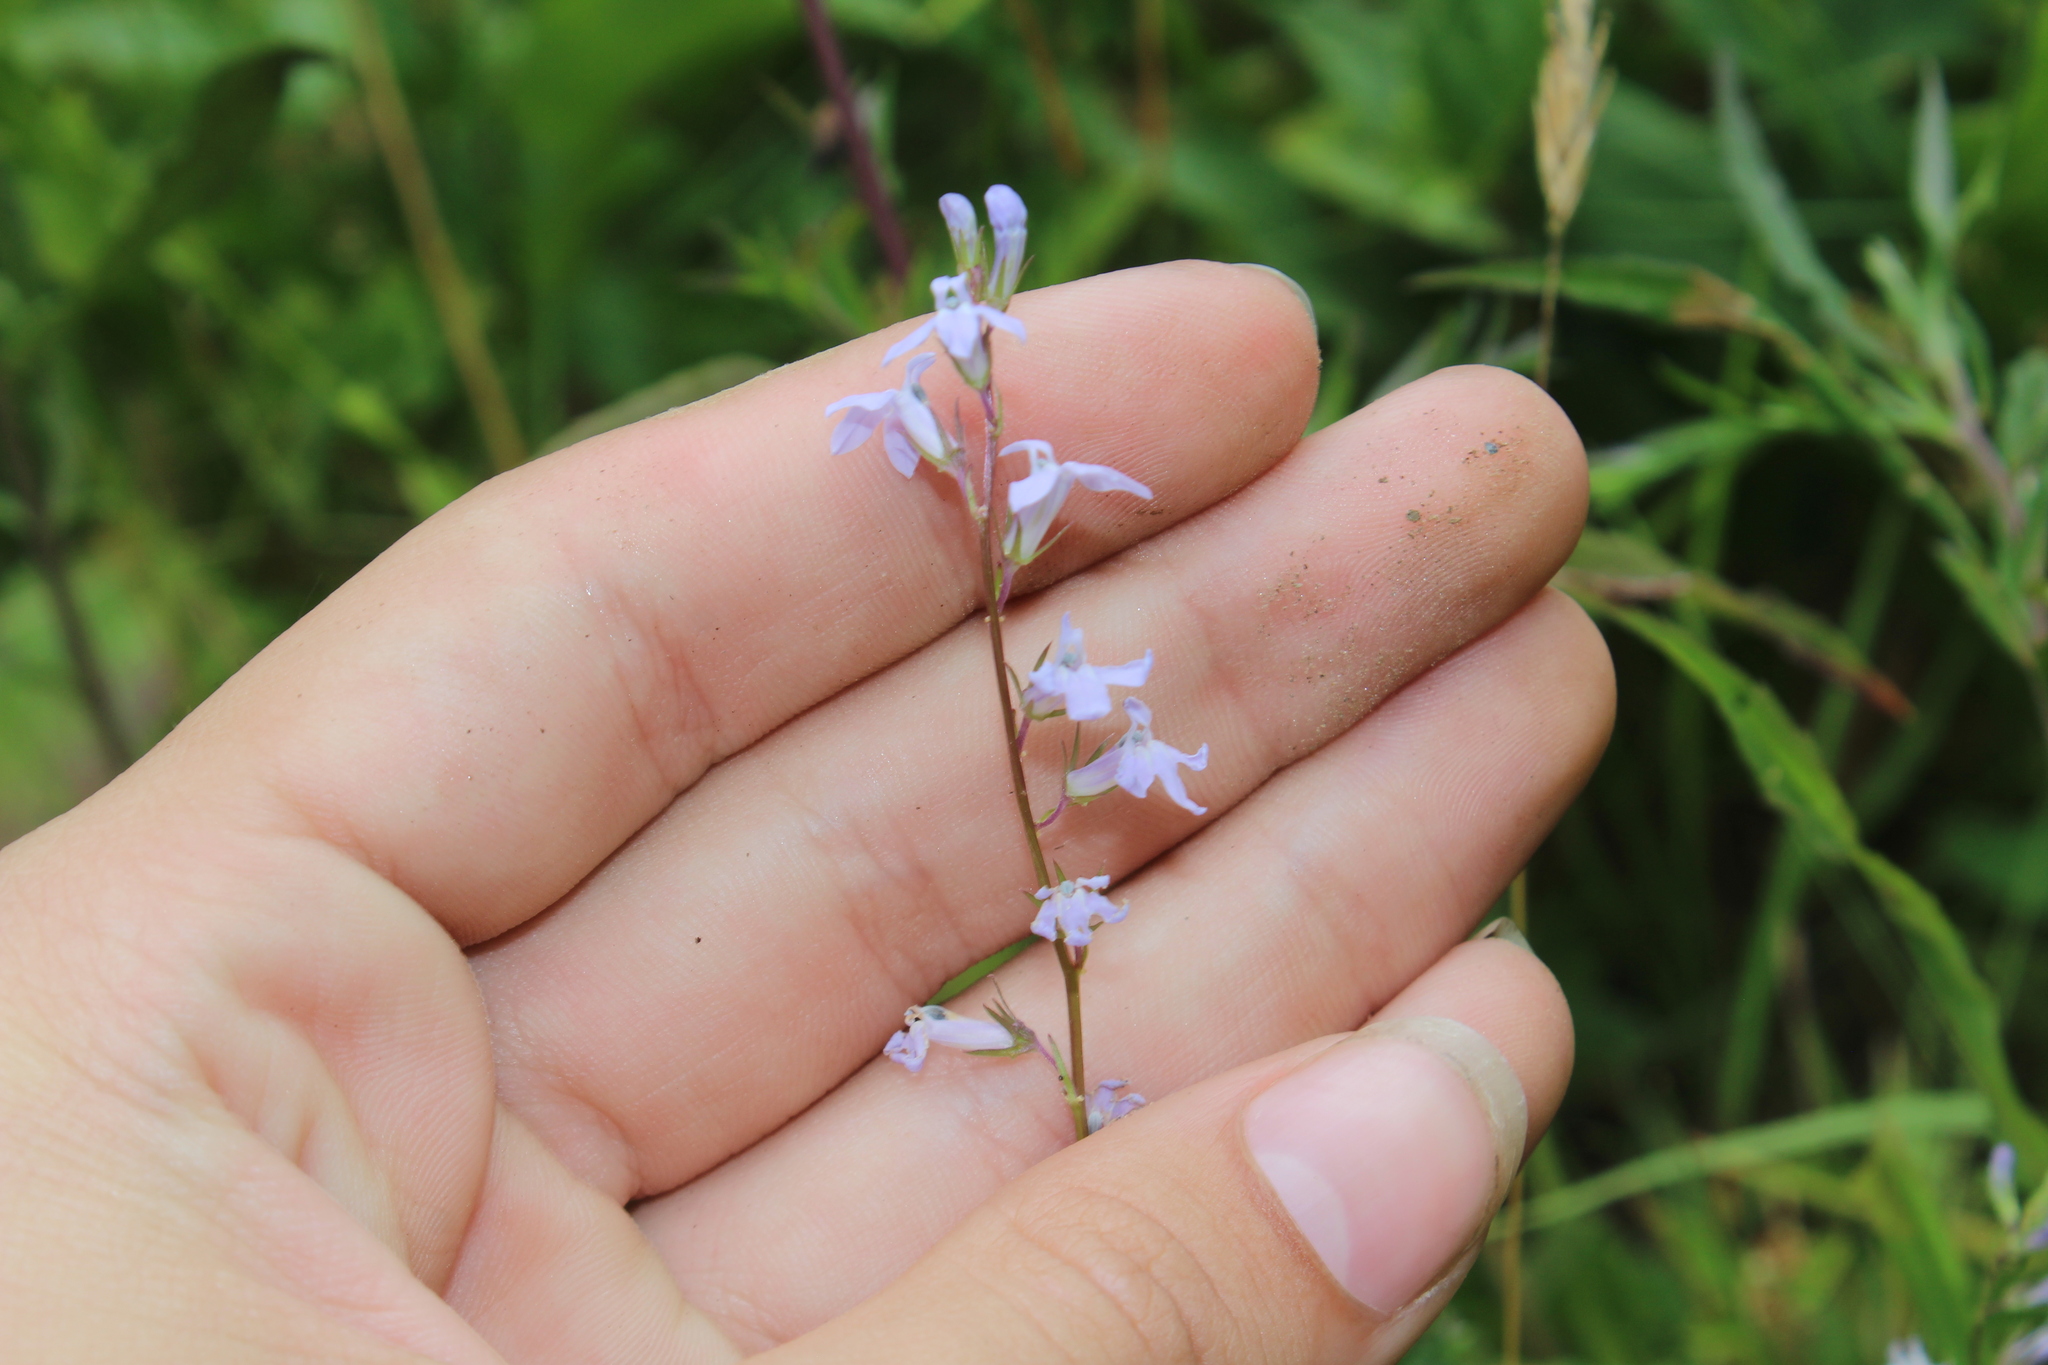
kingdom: Plantae
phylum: Tracheophyta
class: Magnoliopsida
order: Asterales
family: Campanulaceae
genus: Lobelia
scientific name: Lobelia spicata
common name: Pale-spike lobelia
